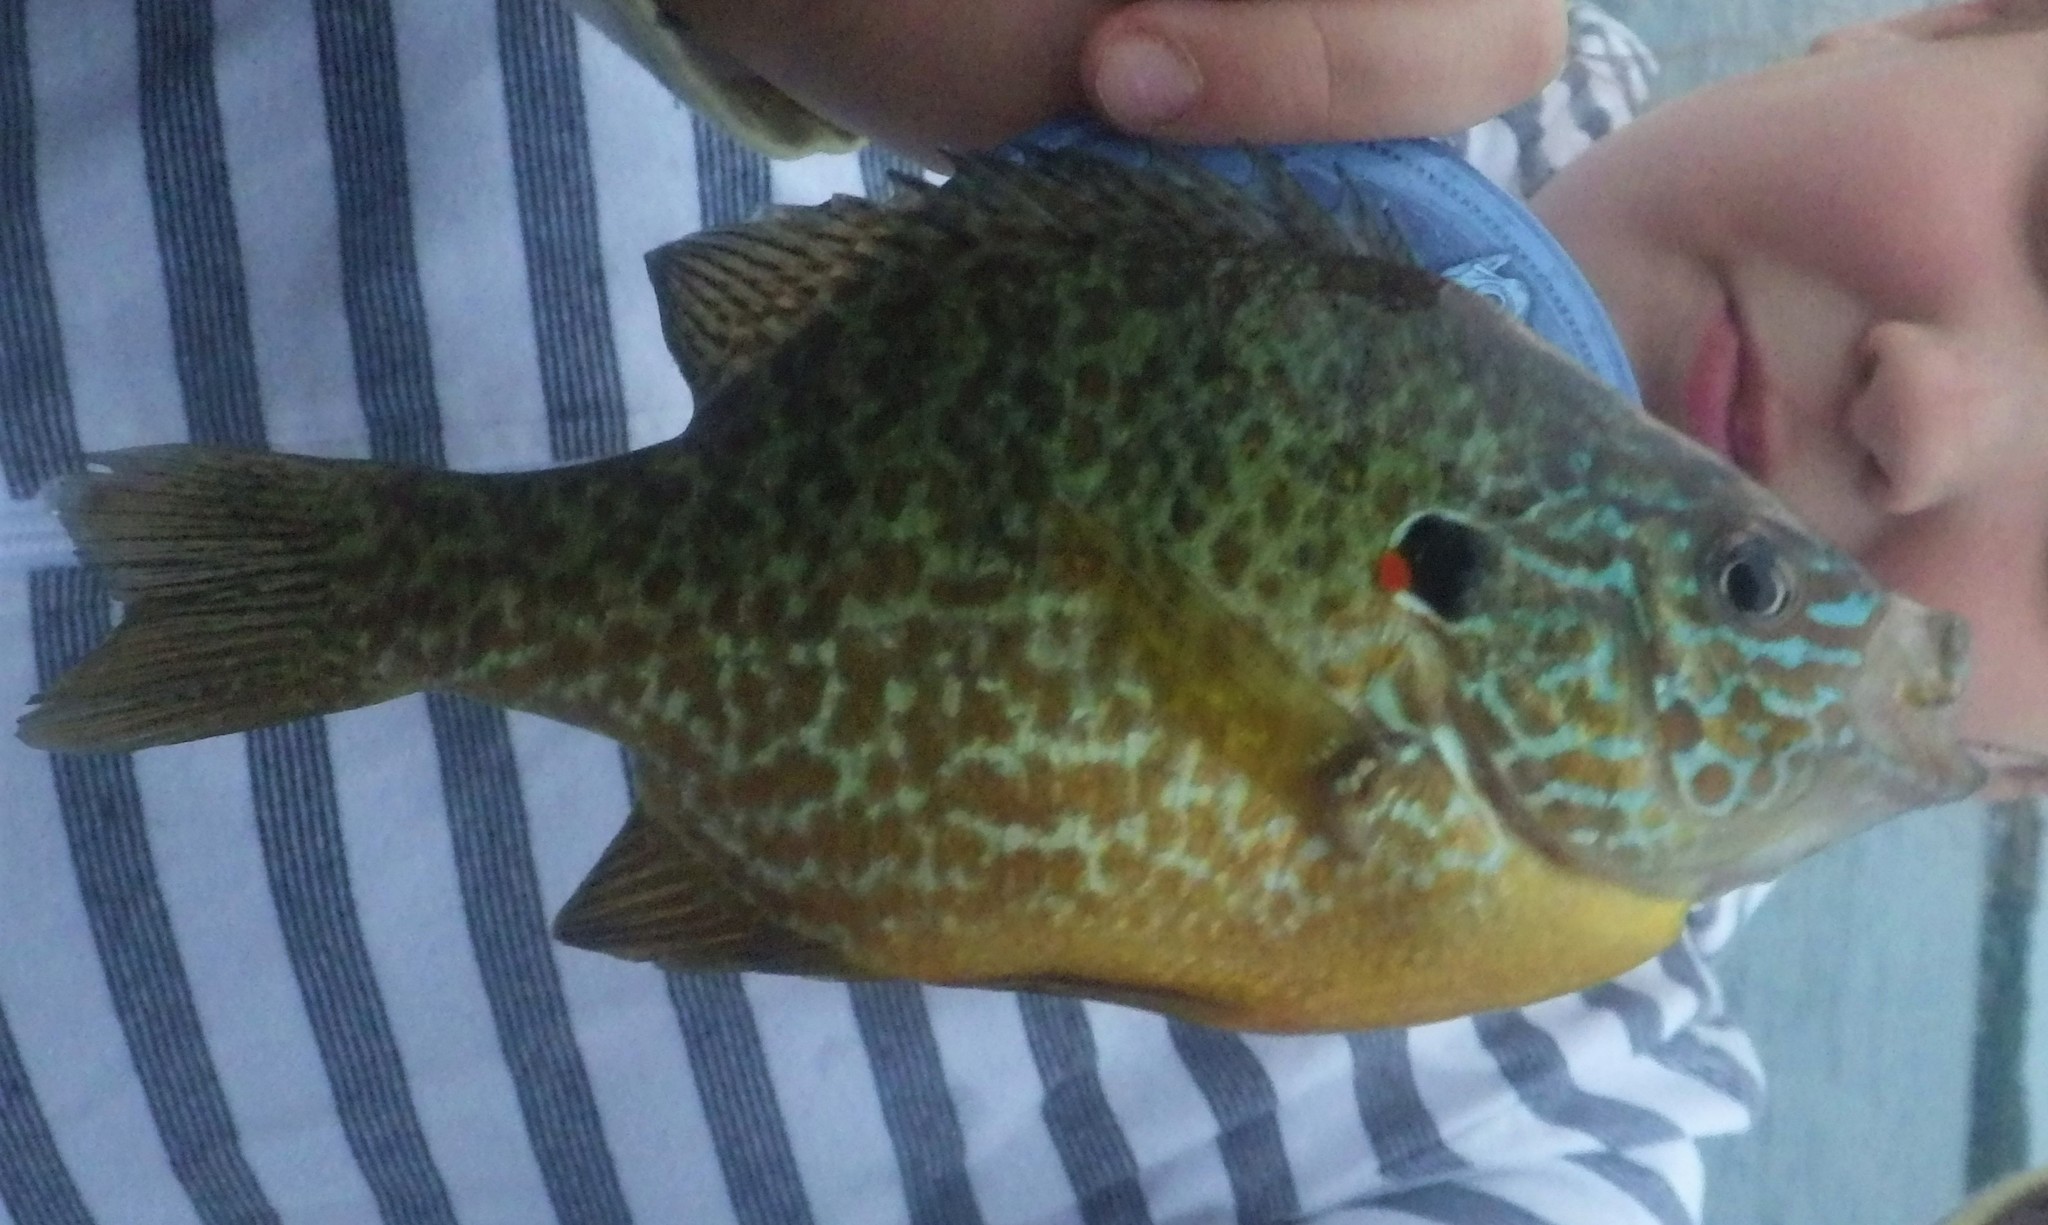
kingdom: Animalia
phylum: Chordata
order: Perciformes
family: Centrarchidae
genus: Lepomis
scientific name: Lepomis gibbosus
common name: Pumpkinseed
